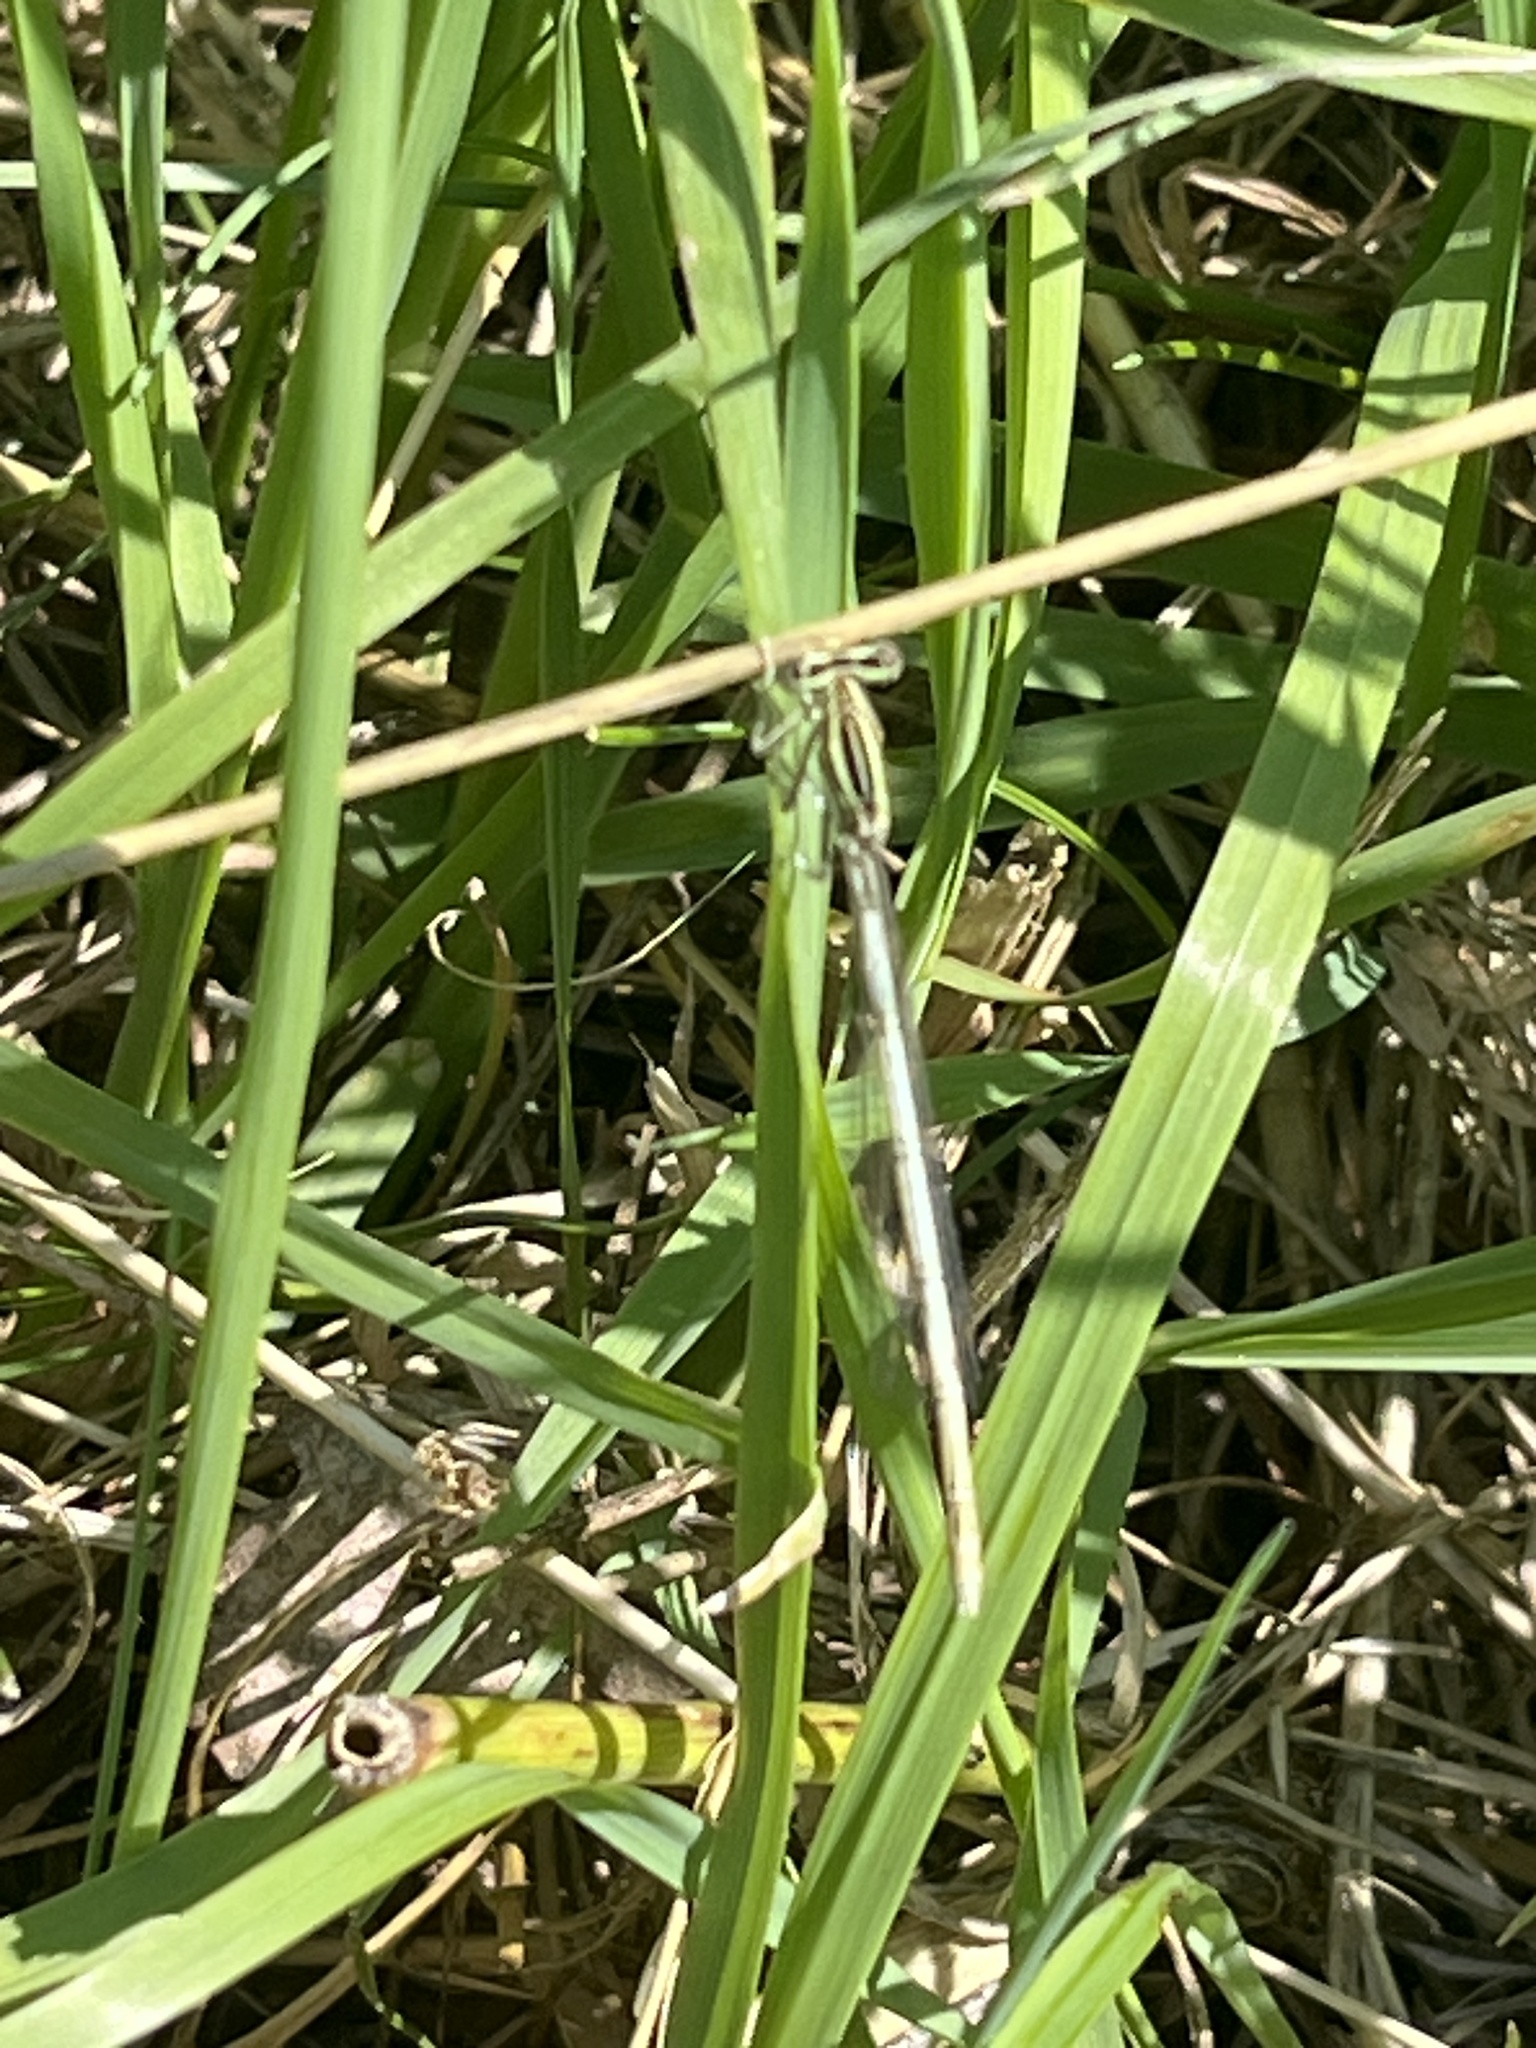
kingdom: Animalia
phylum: Arthropoda
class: Insecta
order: Odonata
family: Platycnemididae
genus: Platycnemis
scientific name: Platycnemis pennipes
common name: White-legged damselfly
